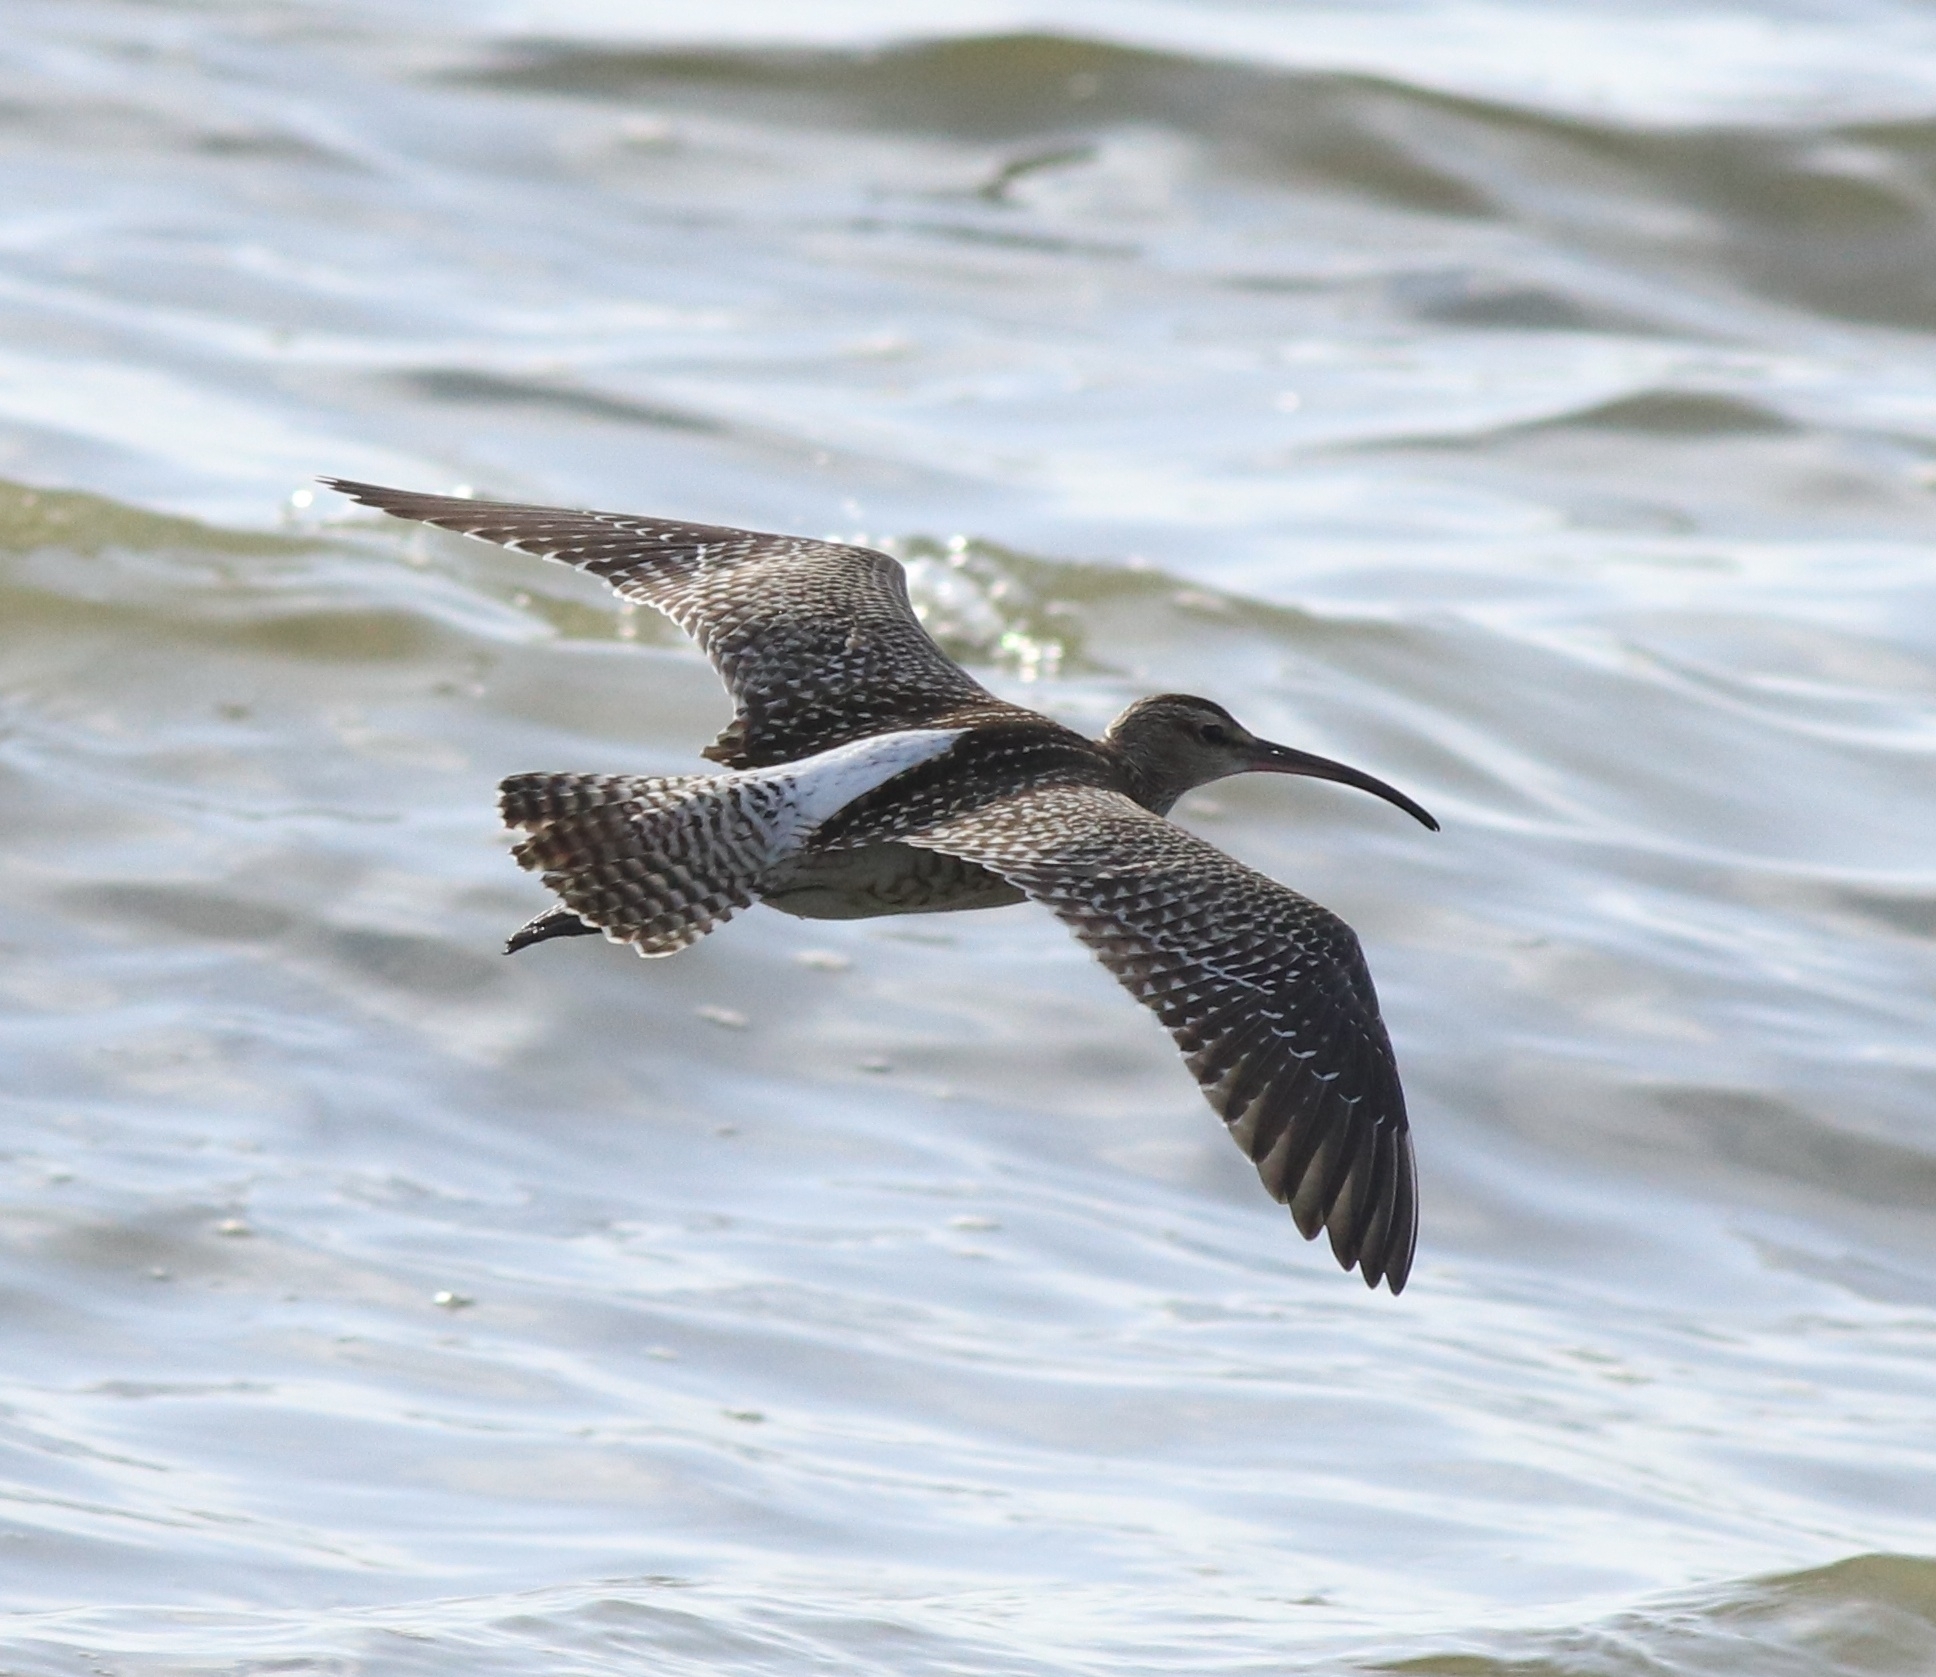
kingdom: Animalia
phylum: Chordata
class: Aves
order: Charadriiformes
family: Scolopacidae
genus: Numenius
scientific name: Numenius phaeopus
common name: Whimbrel
